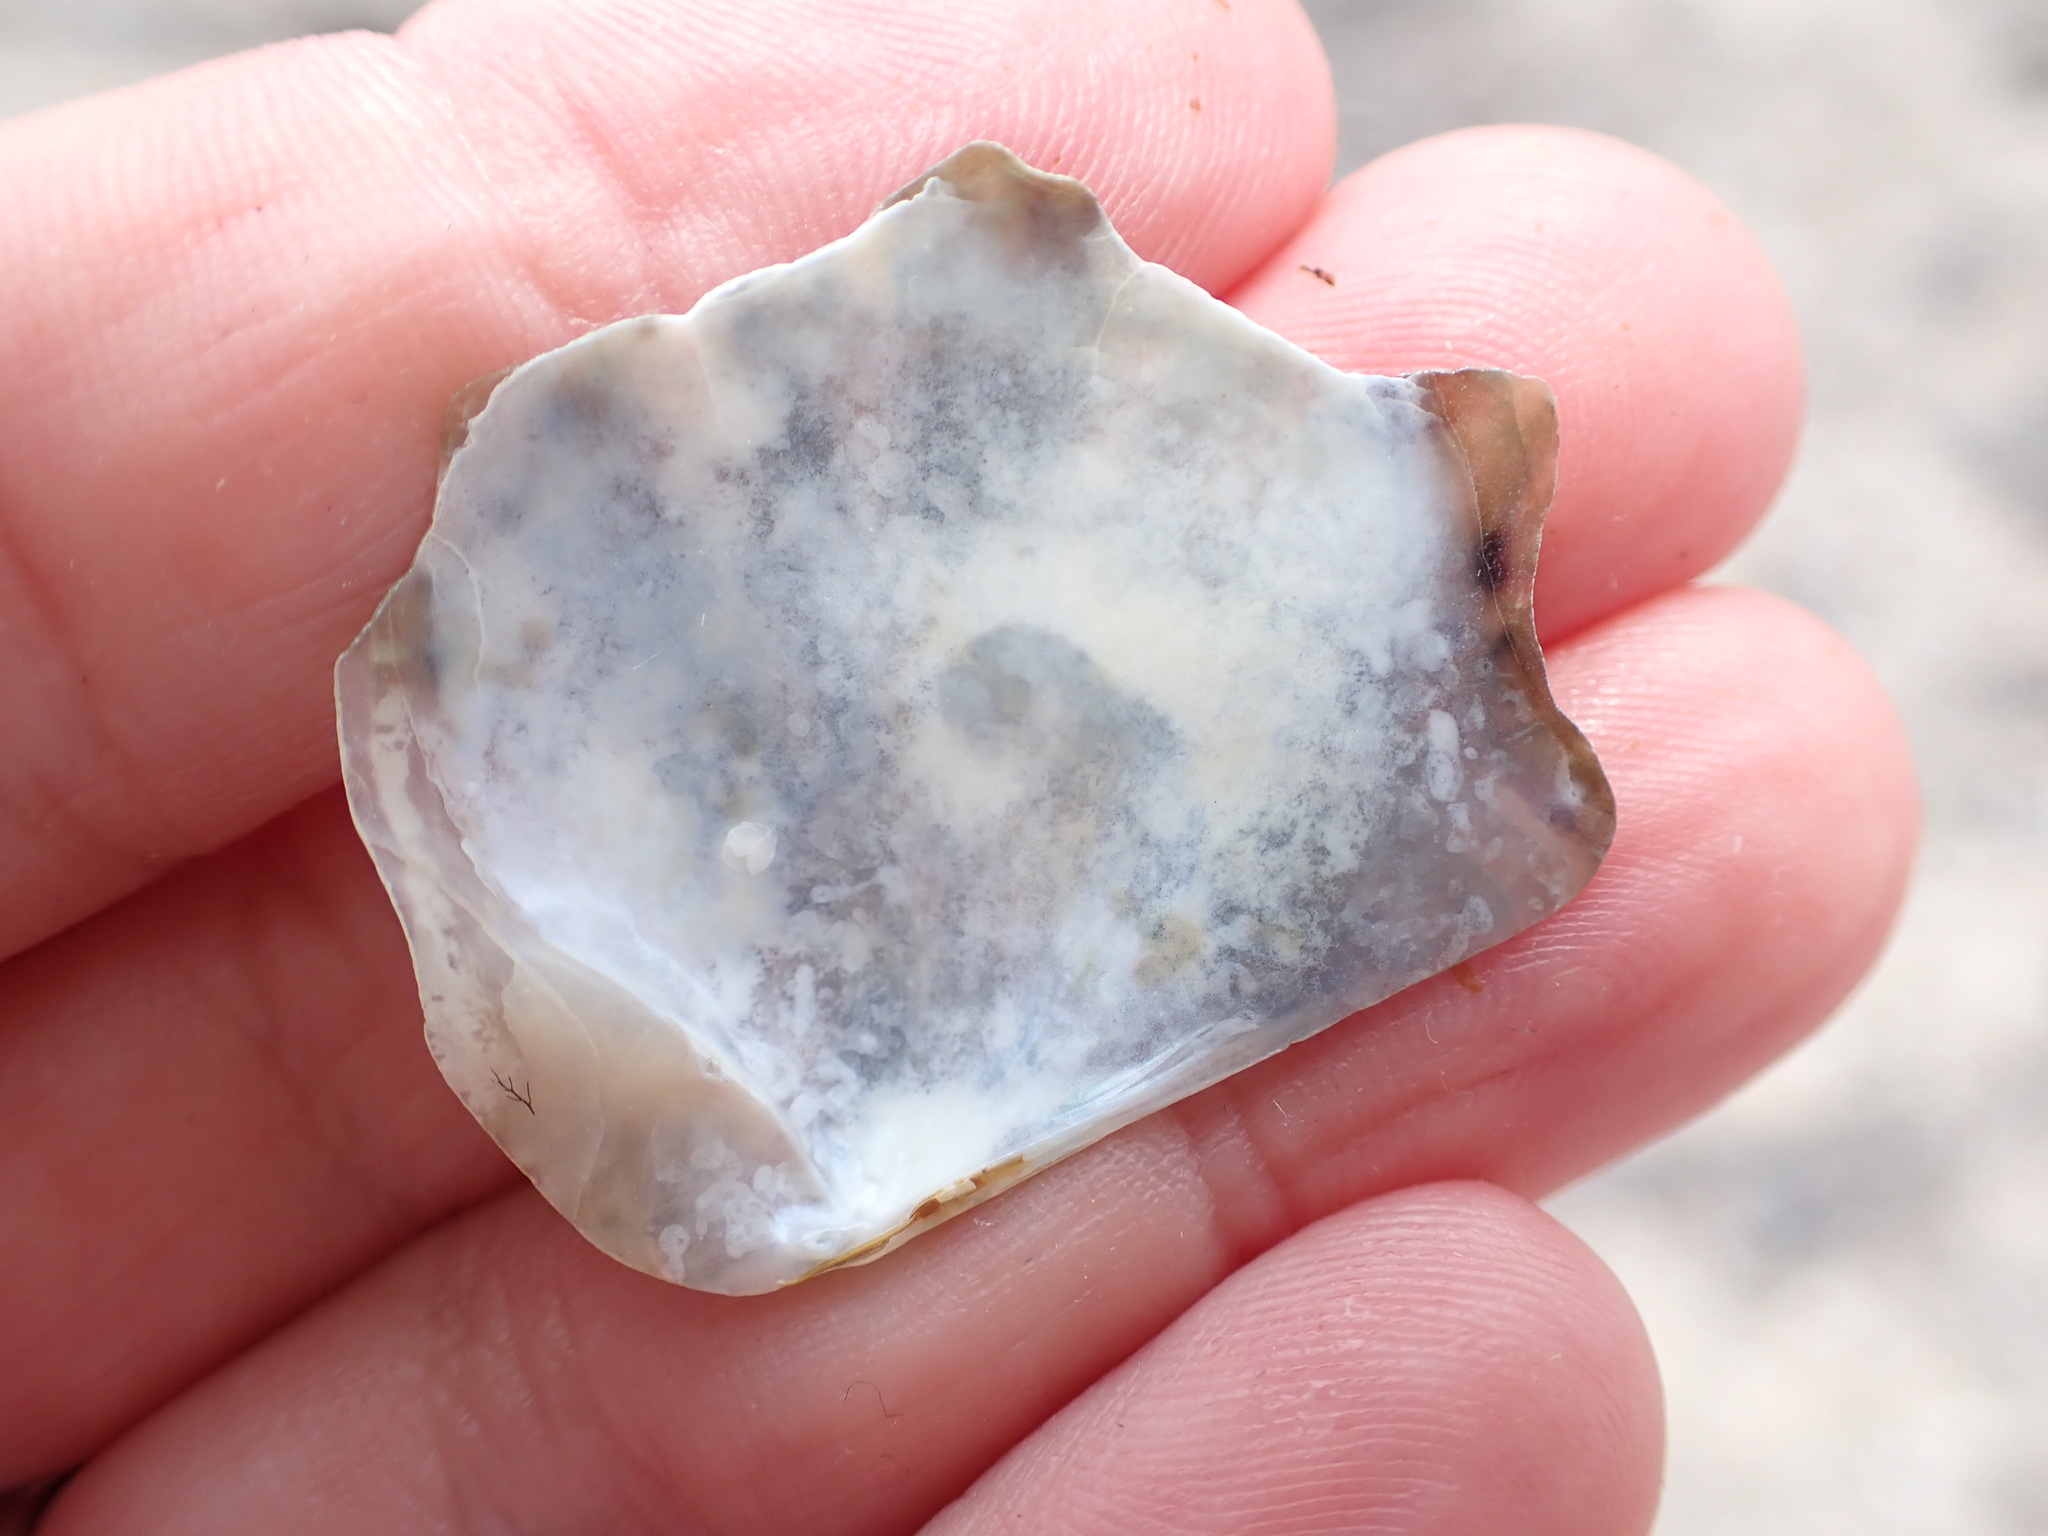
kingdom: Animalia
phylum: Mollusca
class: Bivalvia
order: Ostreida
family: Margaritidae
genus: Pinctada
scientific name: Pinctada radiata
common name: Rayed pearl oyster
